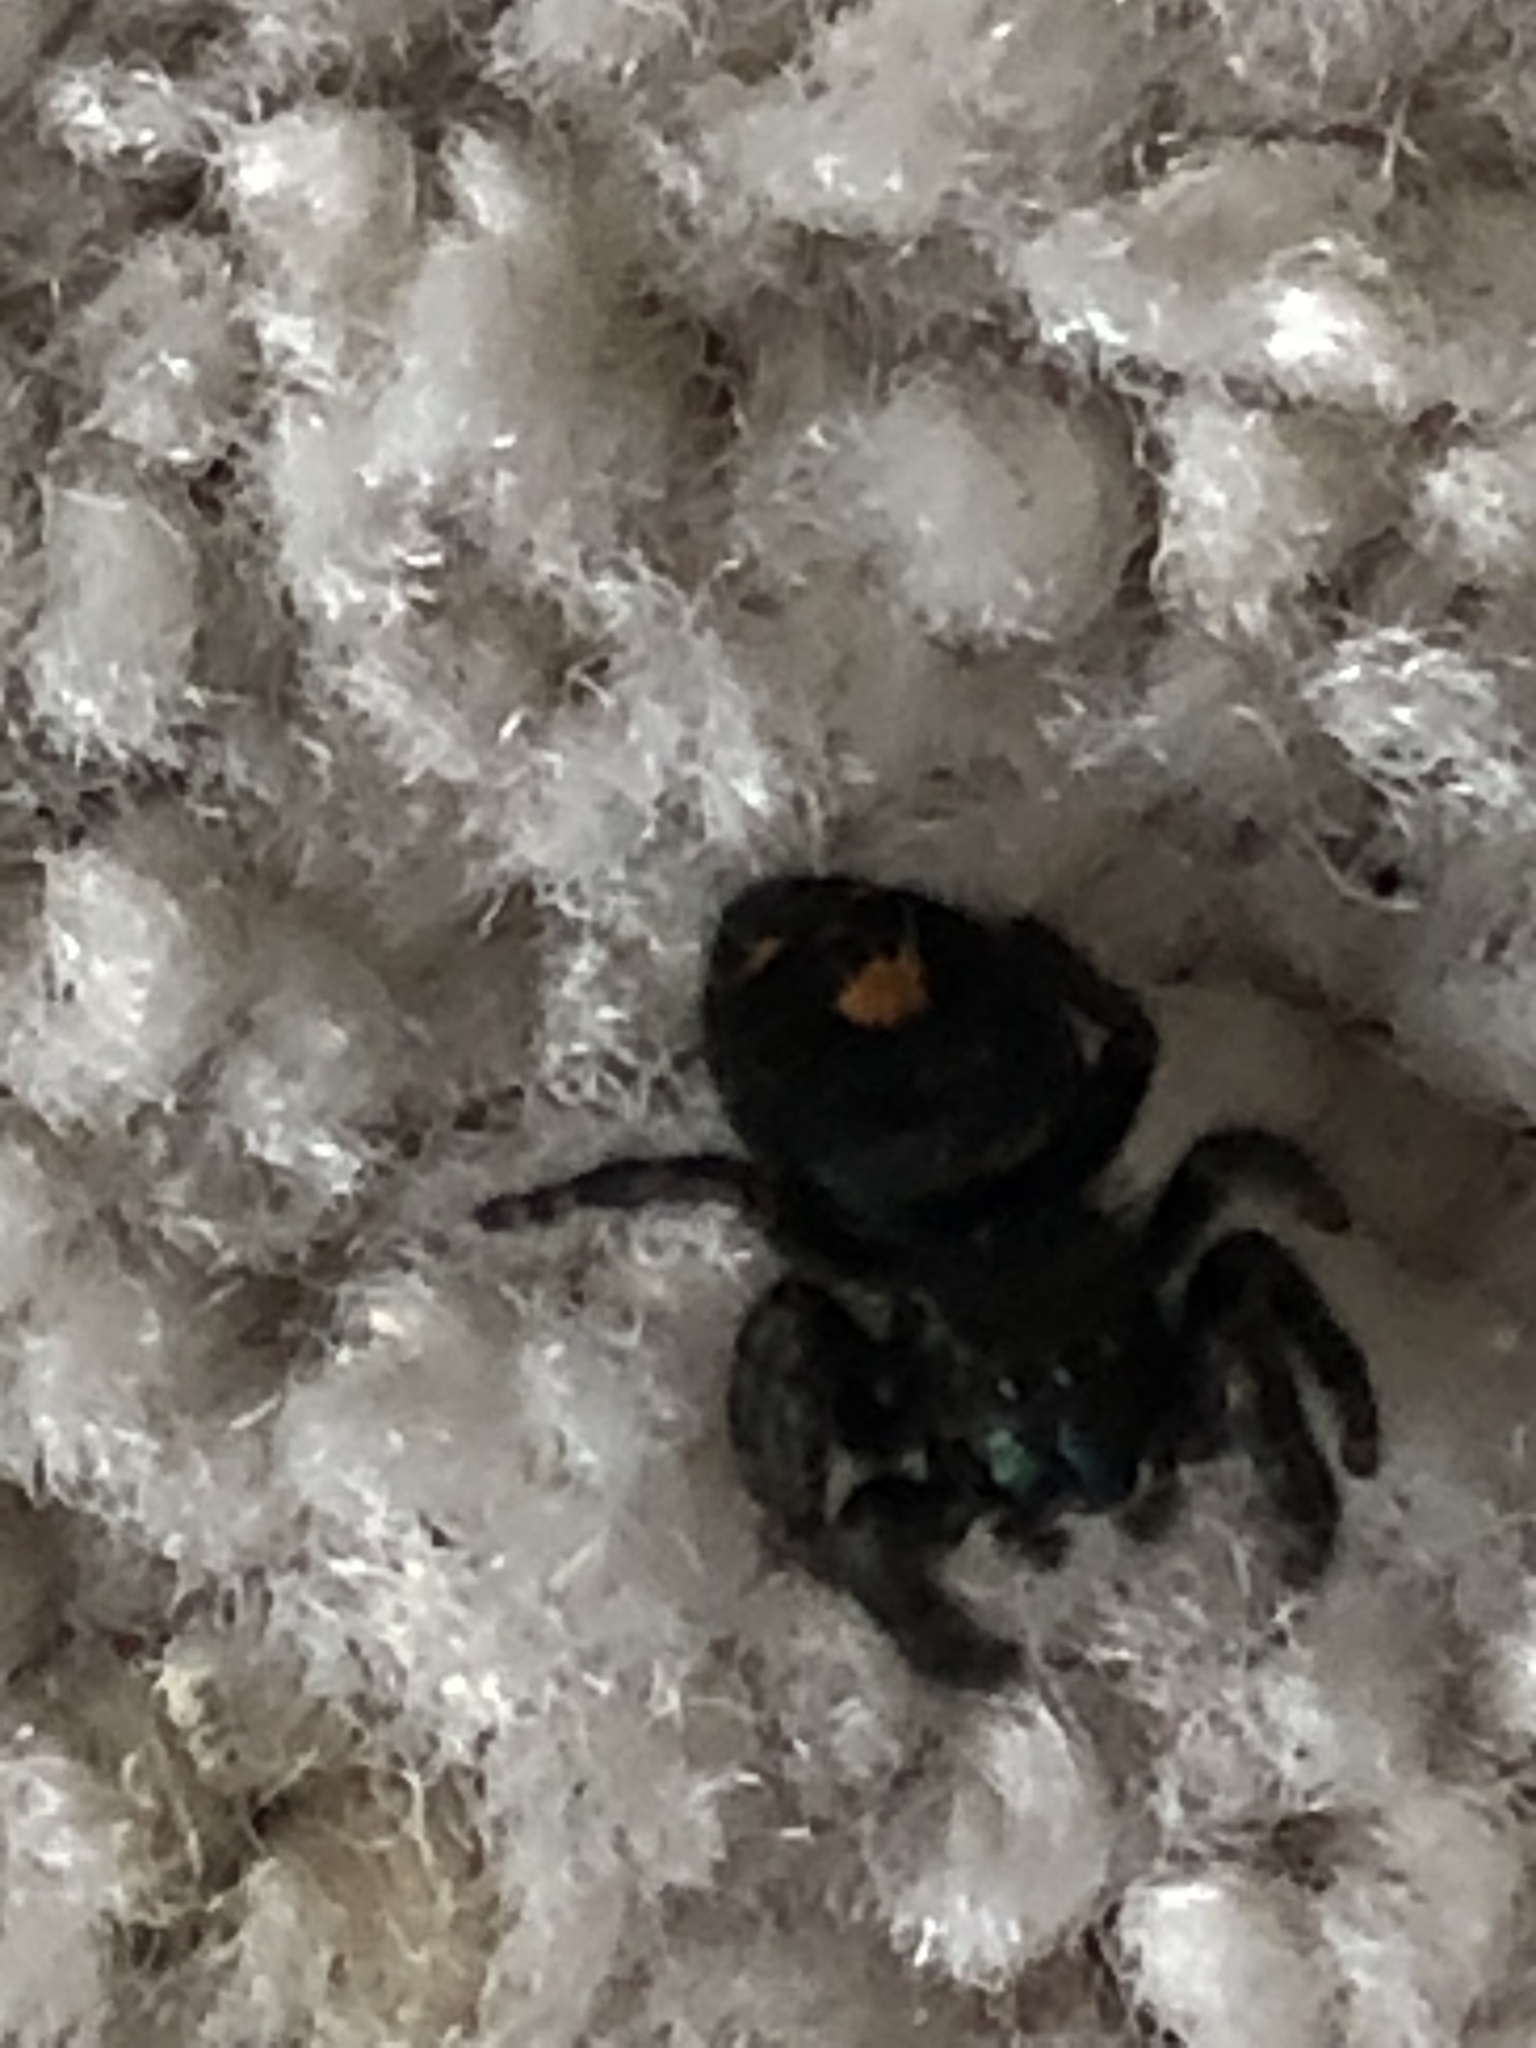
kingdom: Animalia
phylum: Arthropoda
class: Arachnida
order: Araneae
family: Salticidae
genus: Phidippus
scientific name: Phidippus audax
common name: Bold jumper
